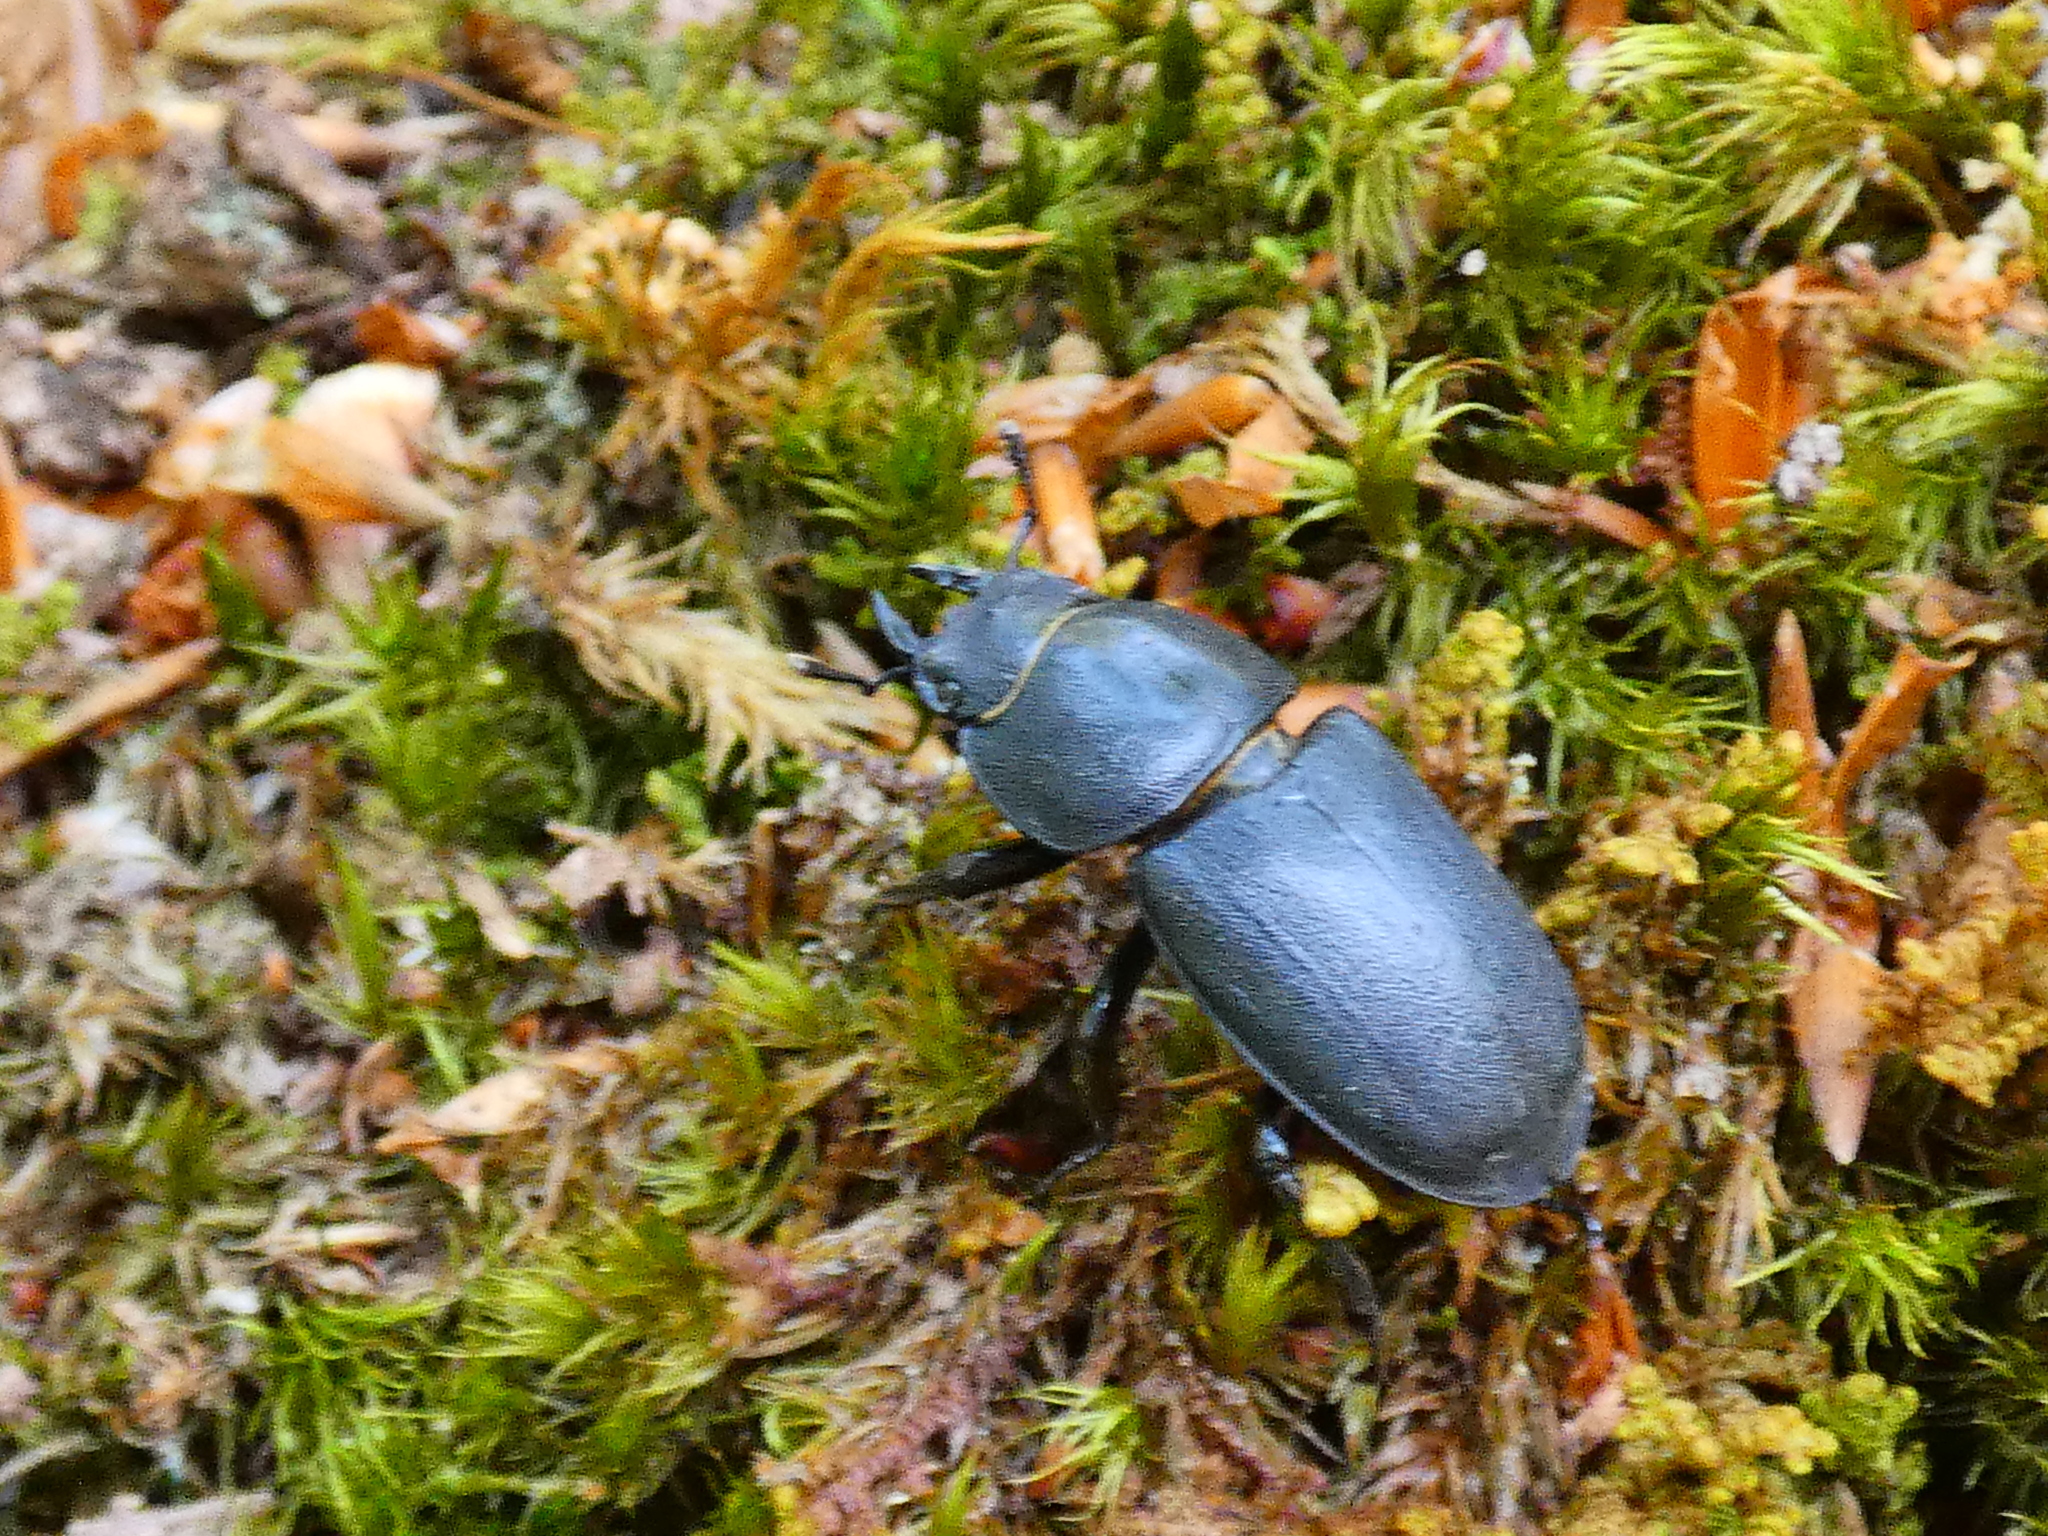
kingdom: Animalia
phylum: Arthropoda
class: Insecta
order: Coleoptera
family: Lucanidae
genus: Dorcus
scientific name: Dorcus parallelipipedus
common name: Lesser stag beetle
